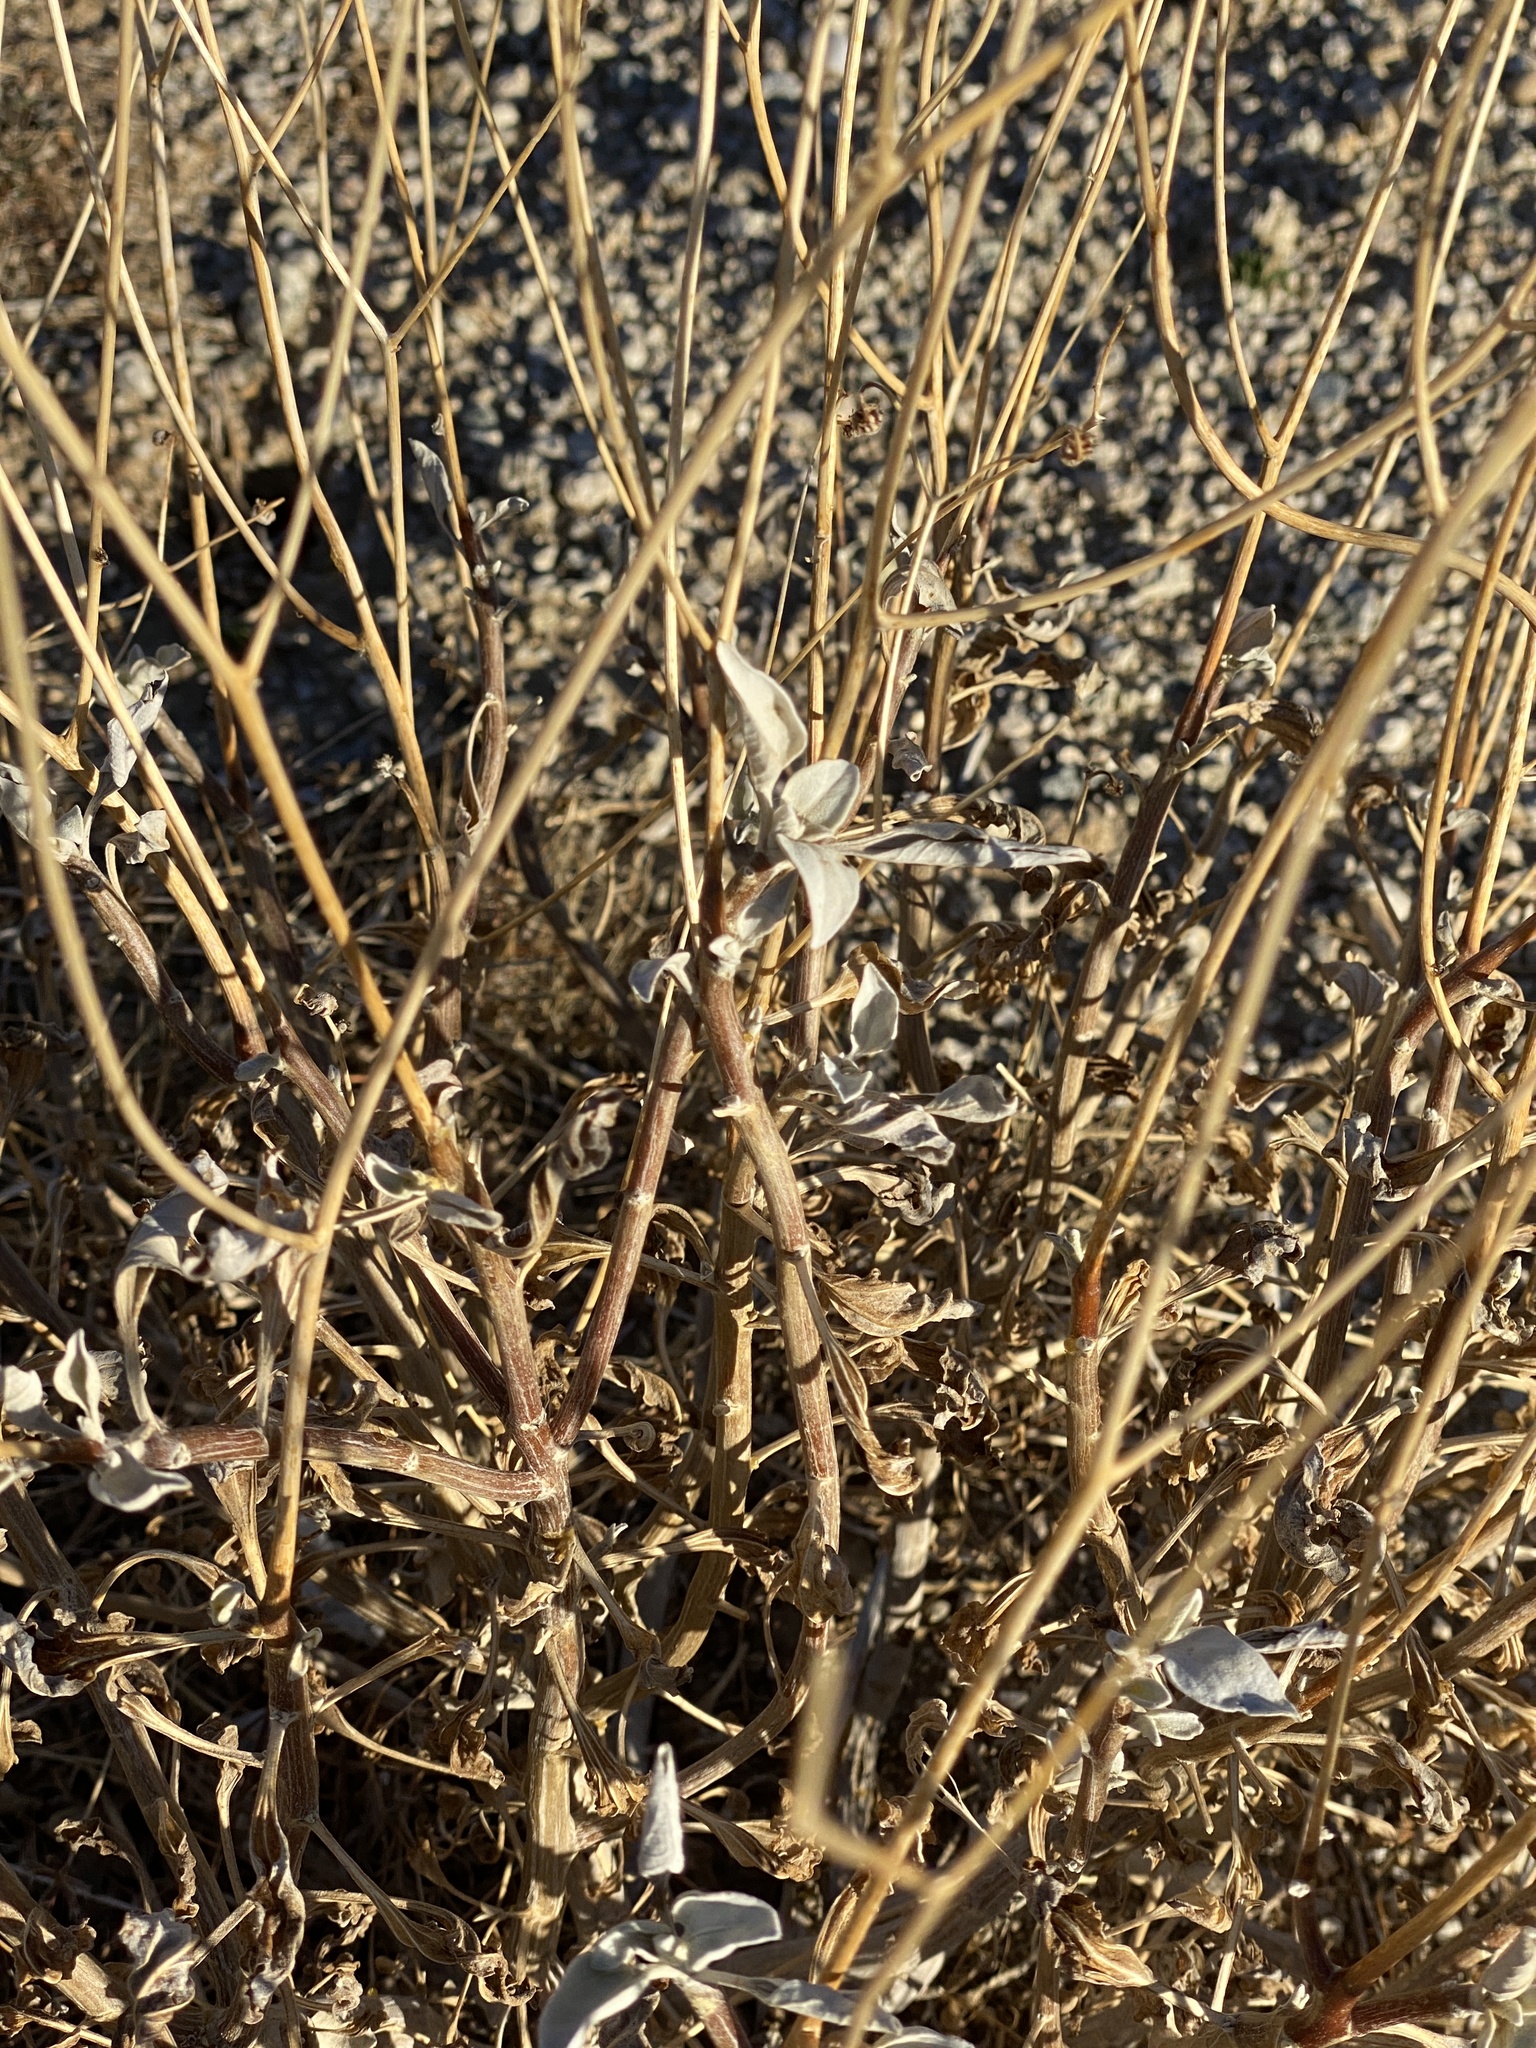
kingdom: Plantae
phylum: Tracheophyta
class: Magnoliopsida
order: Asterales
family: Asteraceae
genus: Encelia
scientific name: Encelia farinosa
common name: Brittlebush
